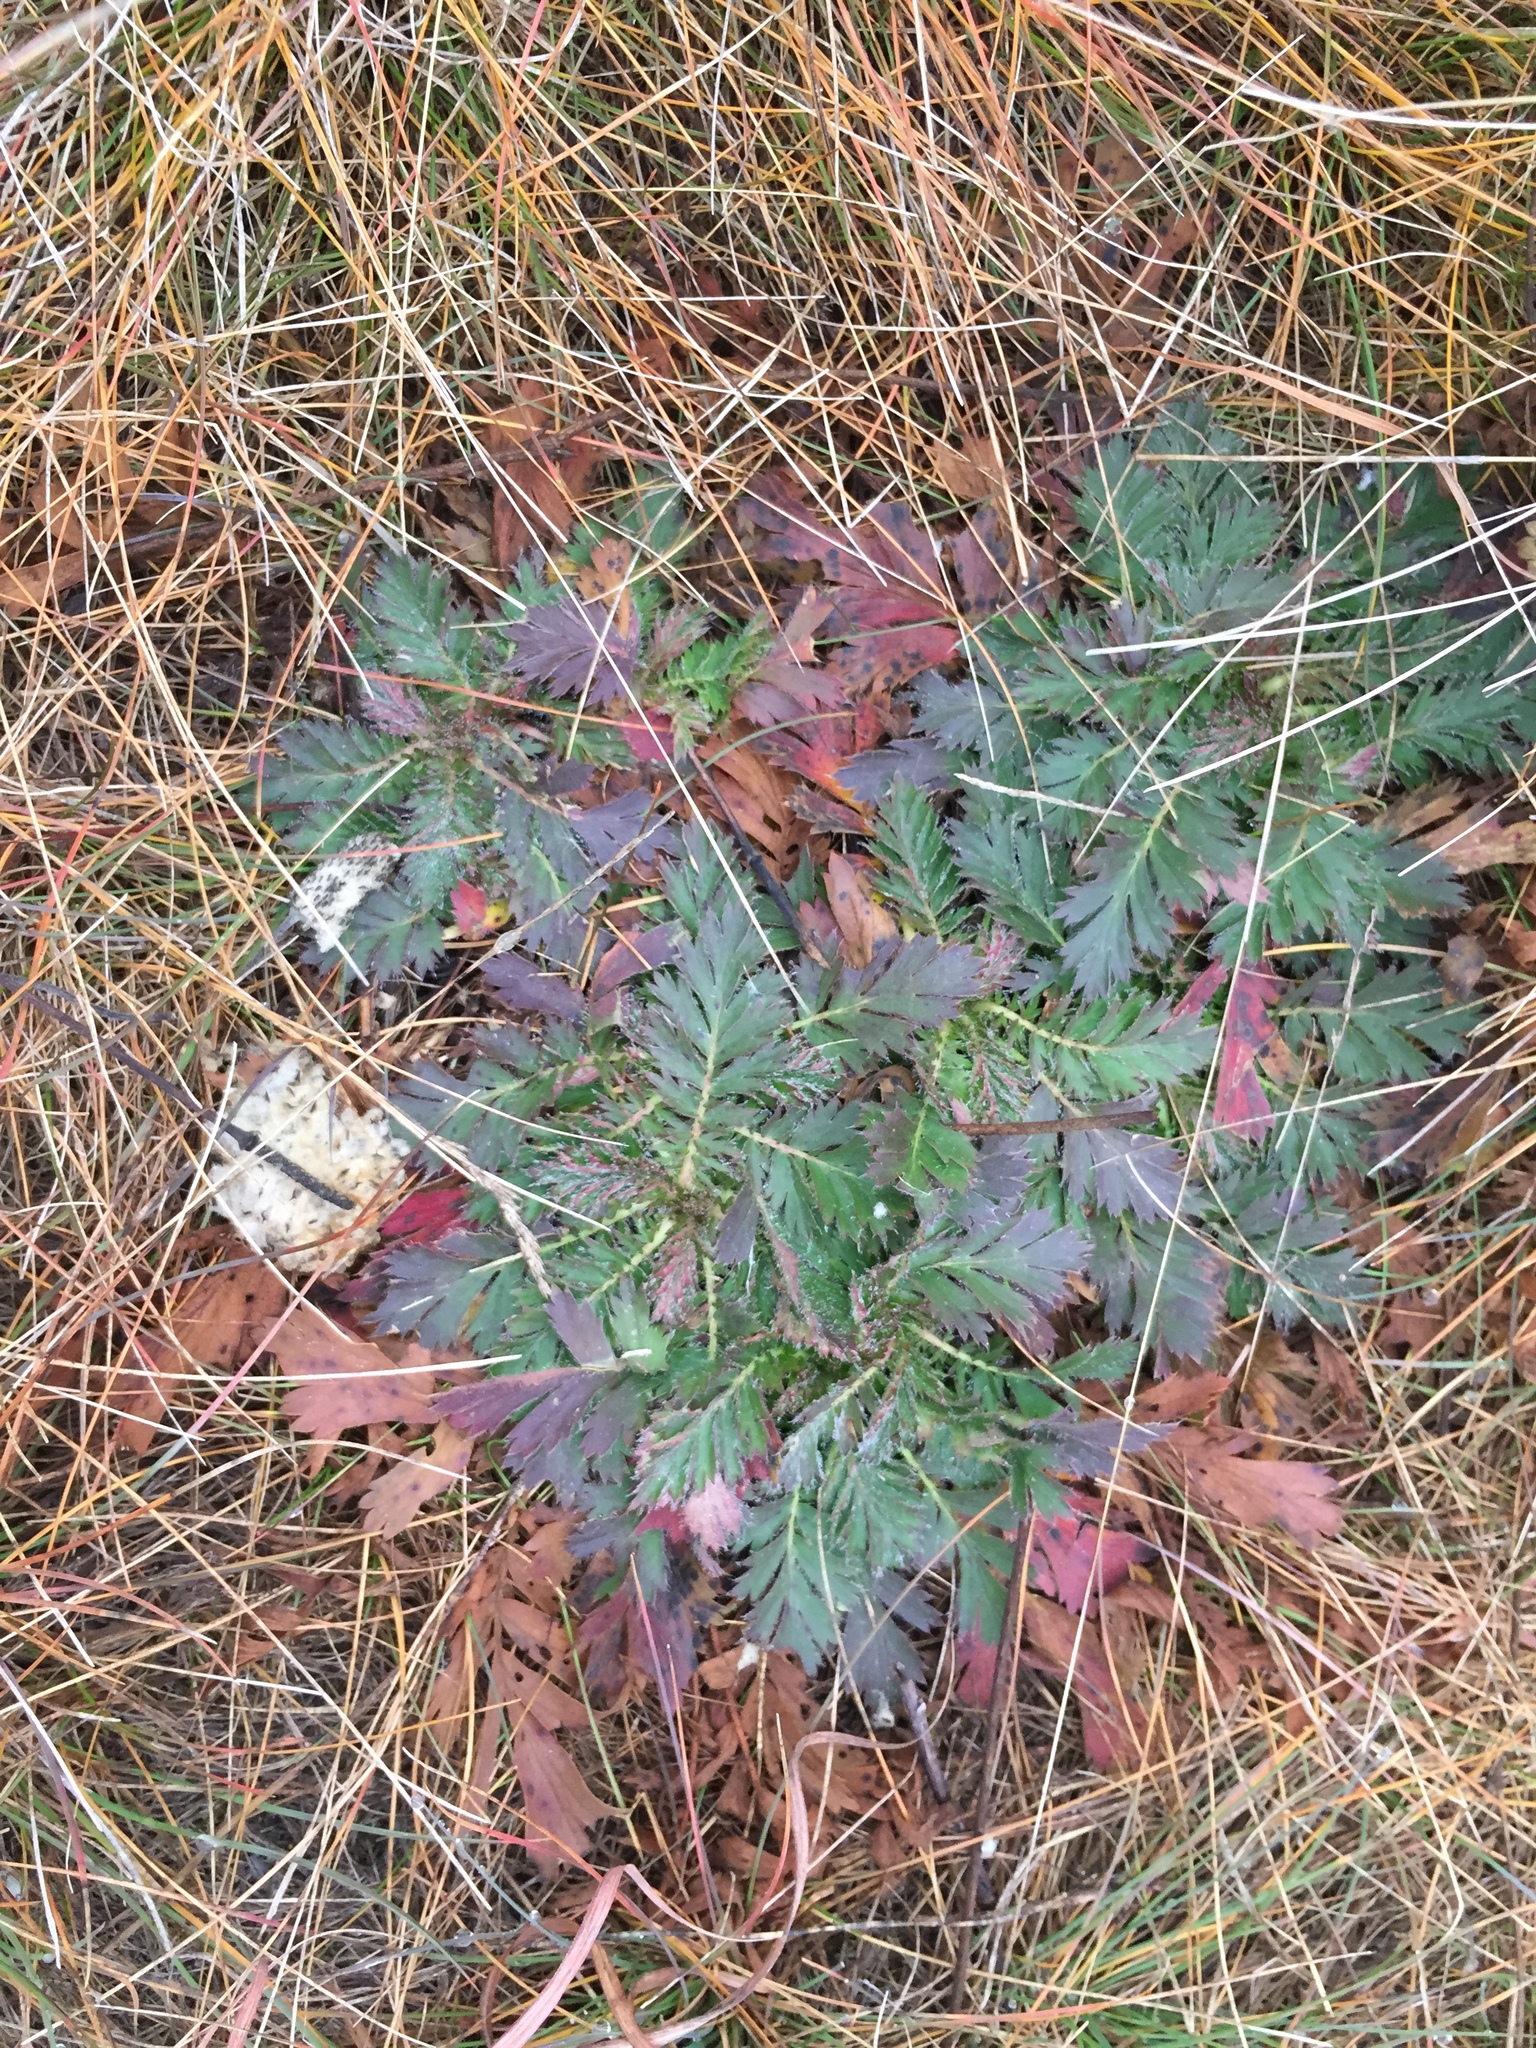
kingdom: Plantae
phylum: Tracheophyta
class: Magnoliopsida
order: Rosales
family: Rosaceae
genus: Geum
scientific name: Geum triflorum
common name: Old man's whiskers
